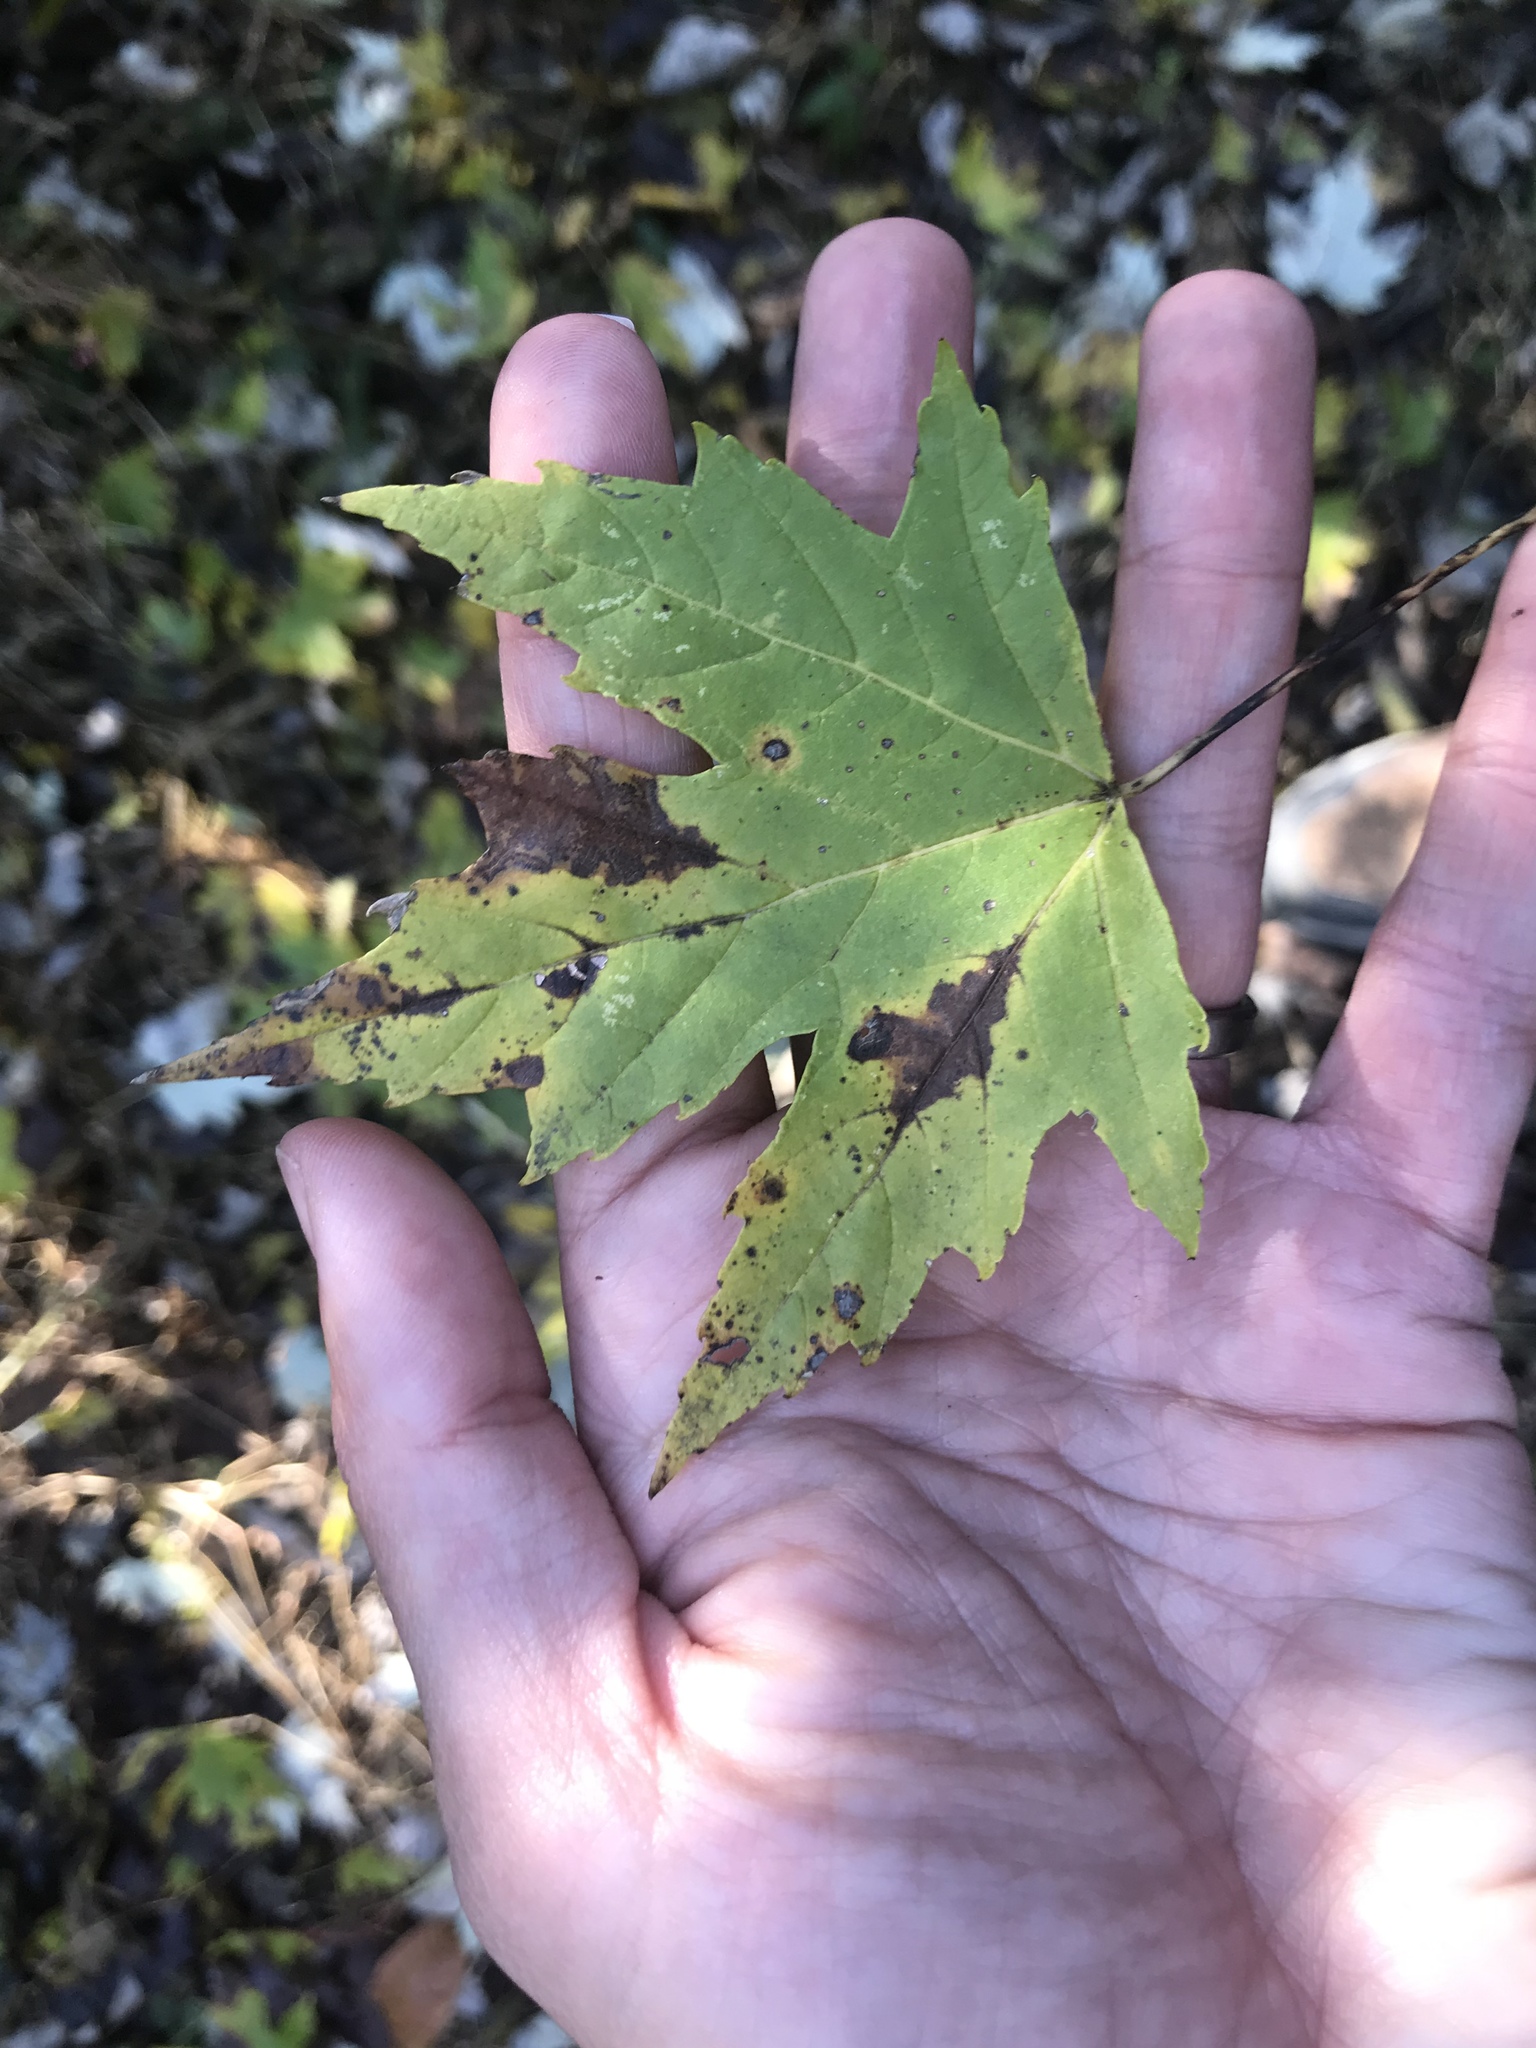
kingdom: Plantae
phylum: Tracheophyta
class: Magnoliopsida
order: Sapindales
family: Sapindaceae
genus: Acer
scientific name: Acer saccharinum
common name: Silver maple
